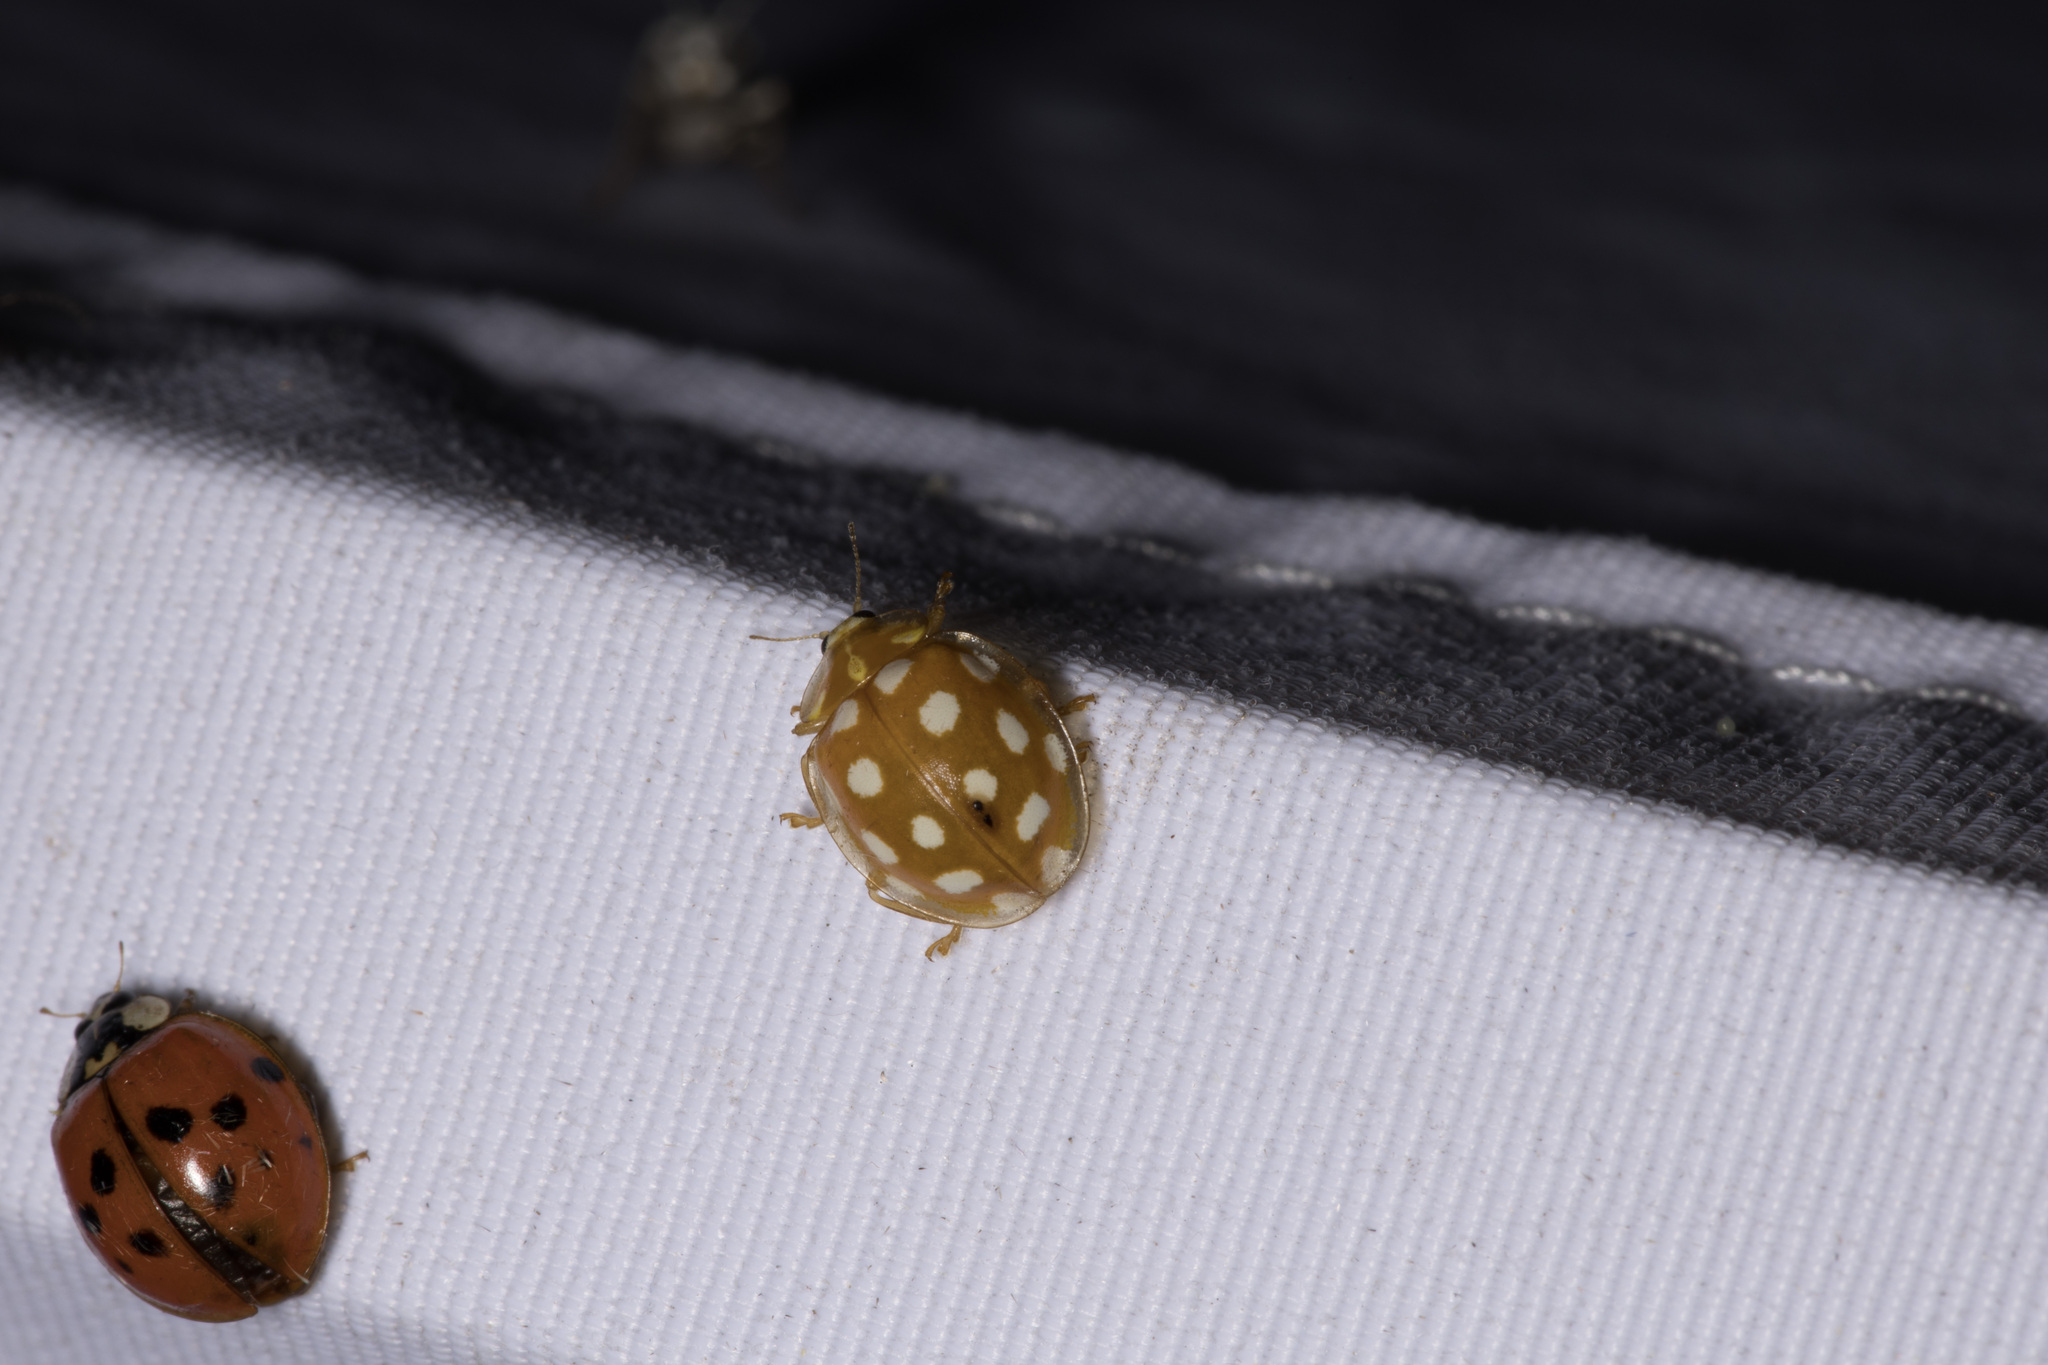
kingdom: Animalia
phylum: Arthropoda
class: Insecta
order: Coleoptera
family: Coccinellidae
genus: Halyzia
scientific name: Halyzia sedecimguttata
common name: Orange ladybird
